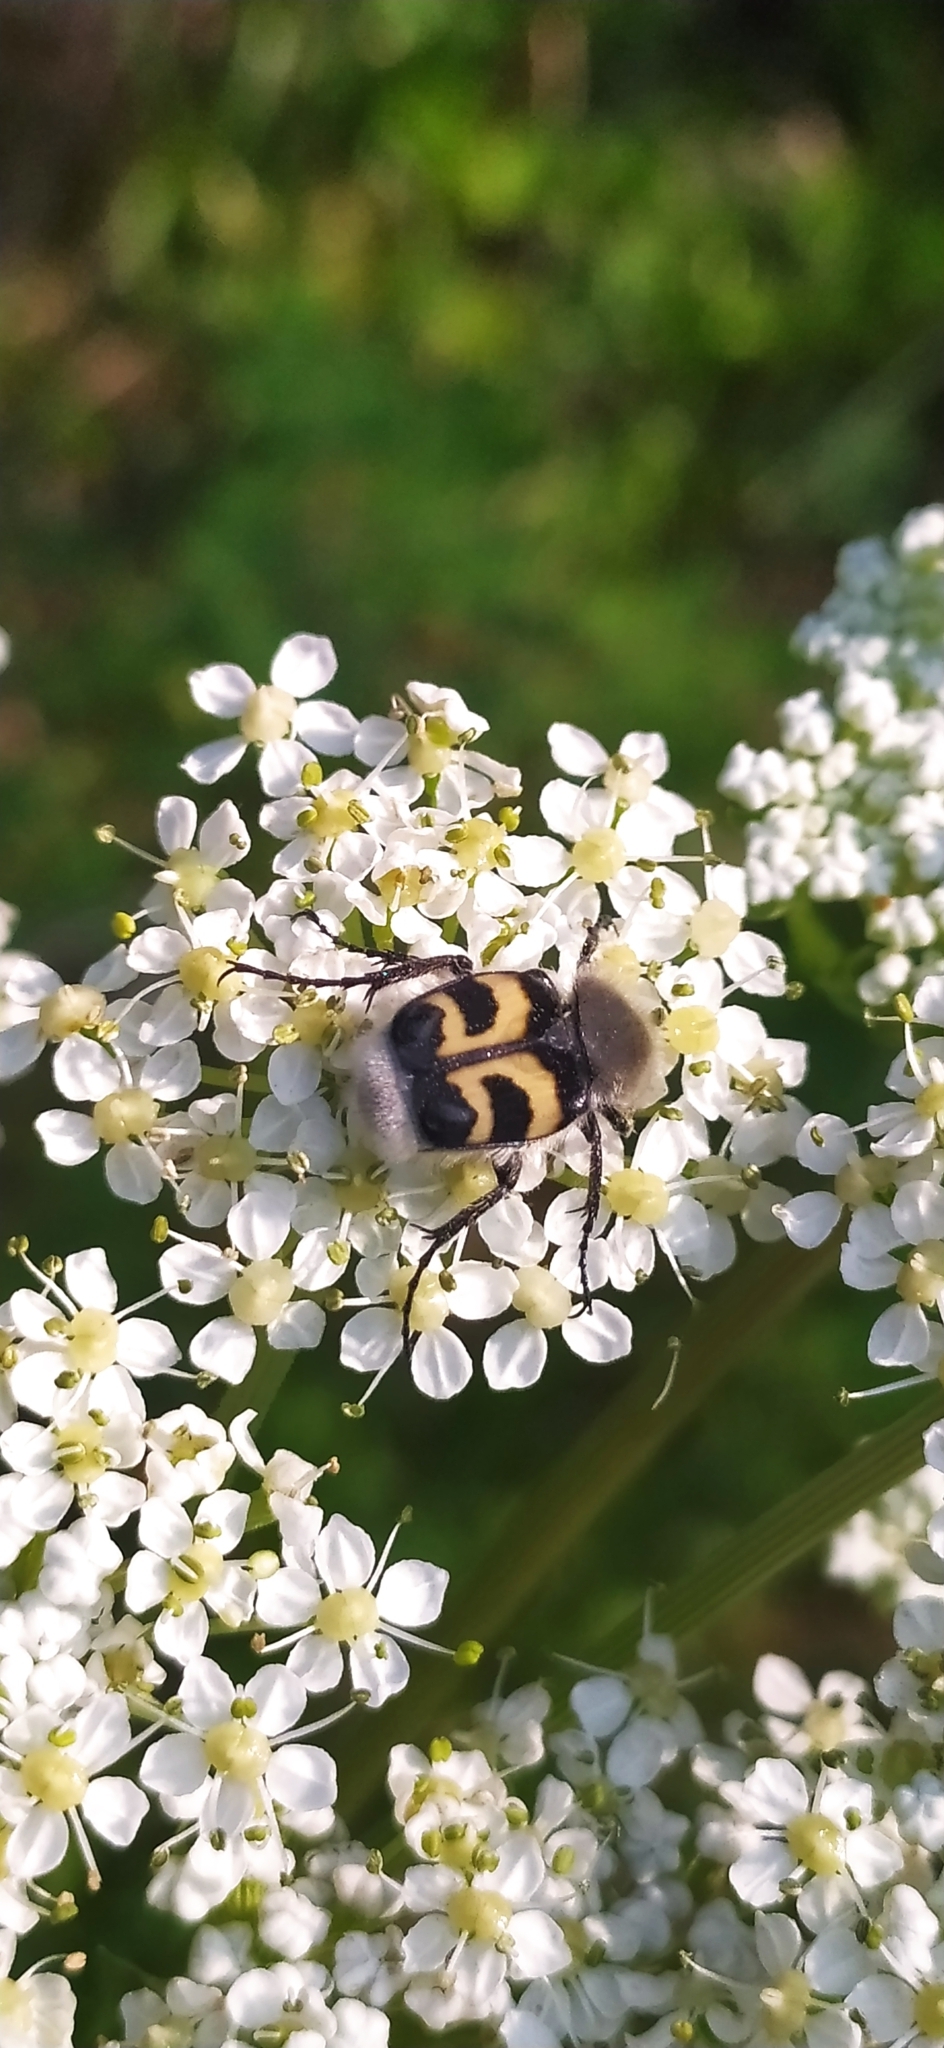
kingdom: Animalia
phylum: Arthropoda
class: Insecta
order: Coleoptera
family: Scarabaeidae
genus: Trichius
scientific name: Trichius fasciatus
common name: Bee beetle
